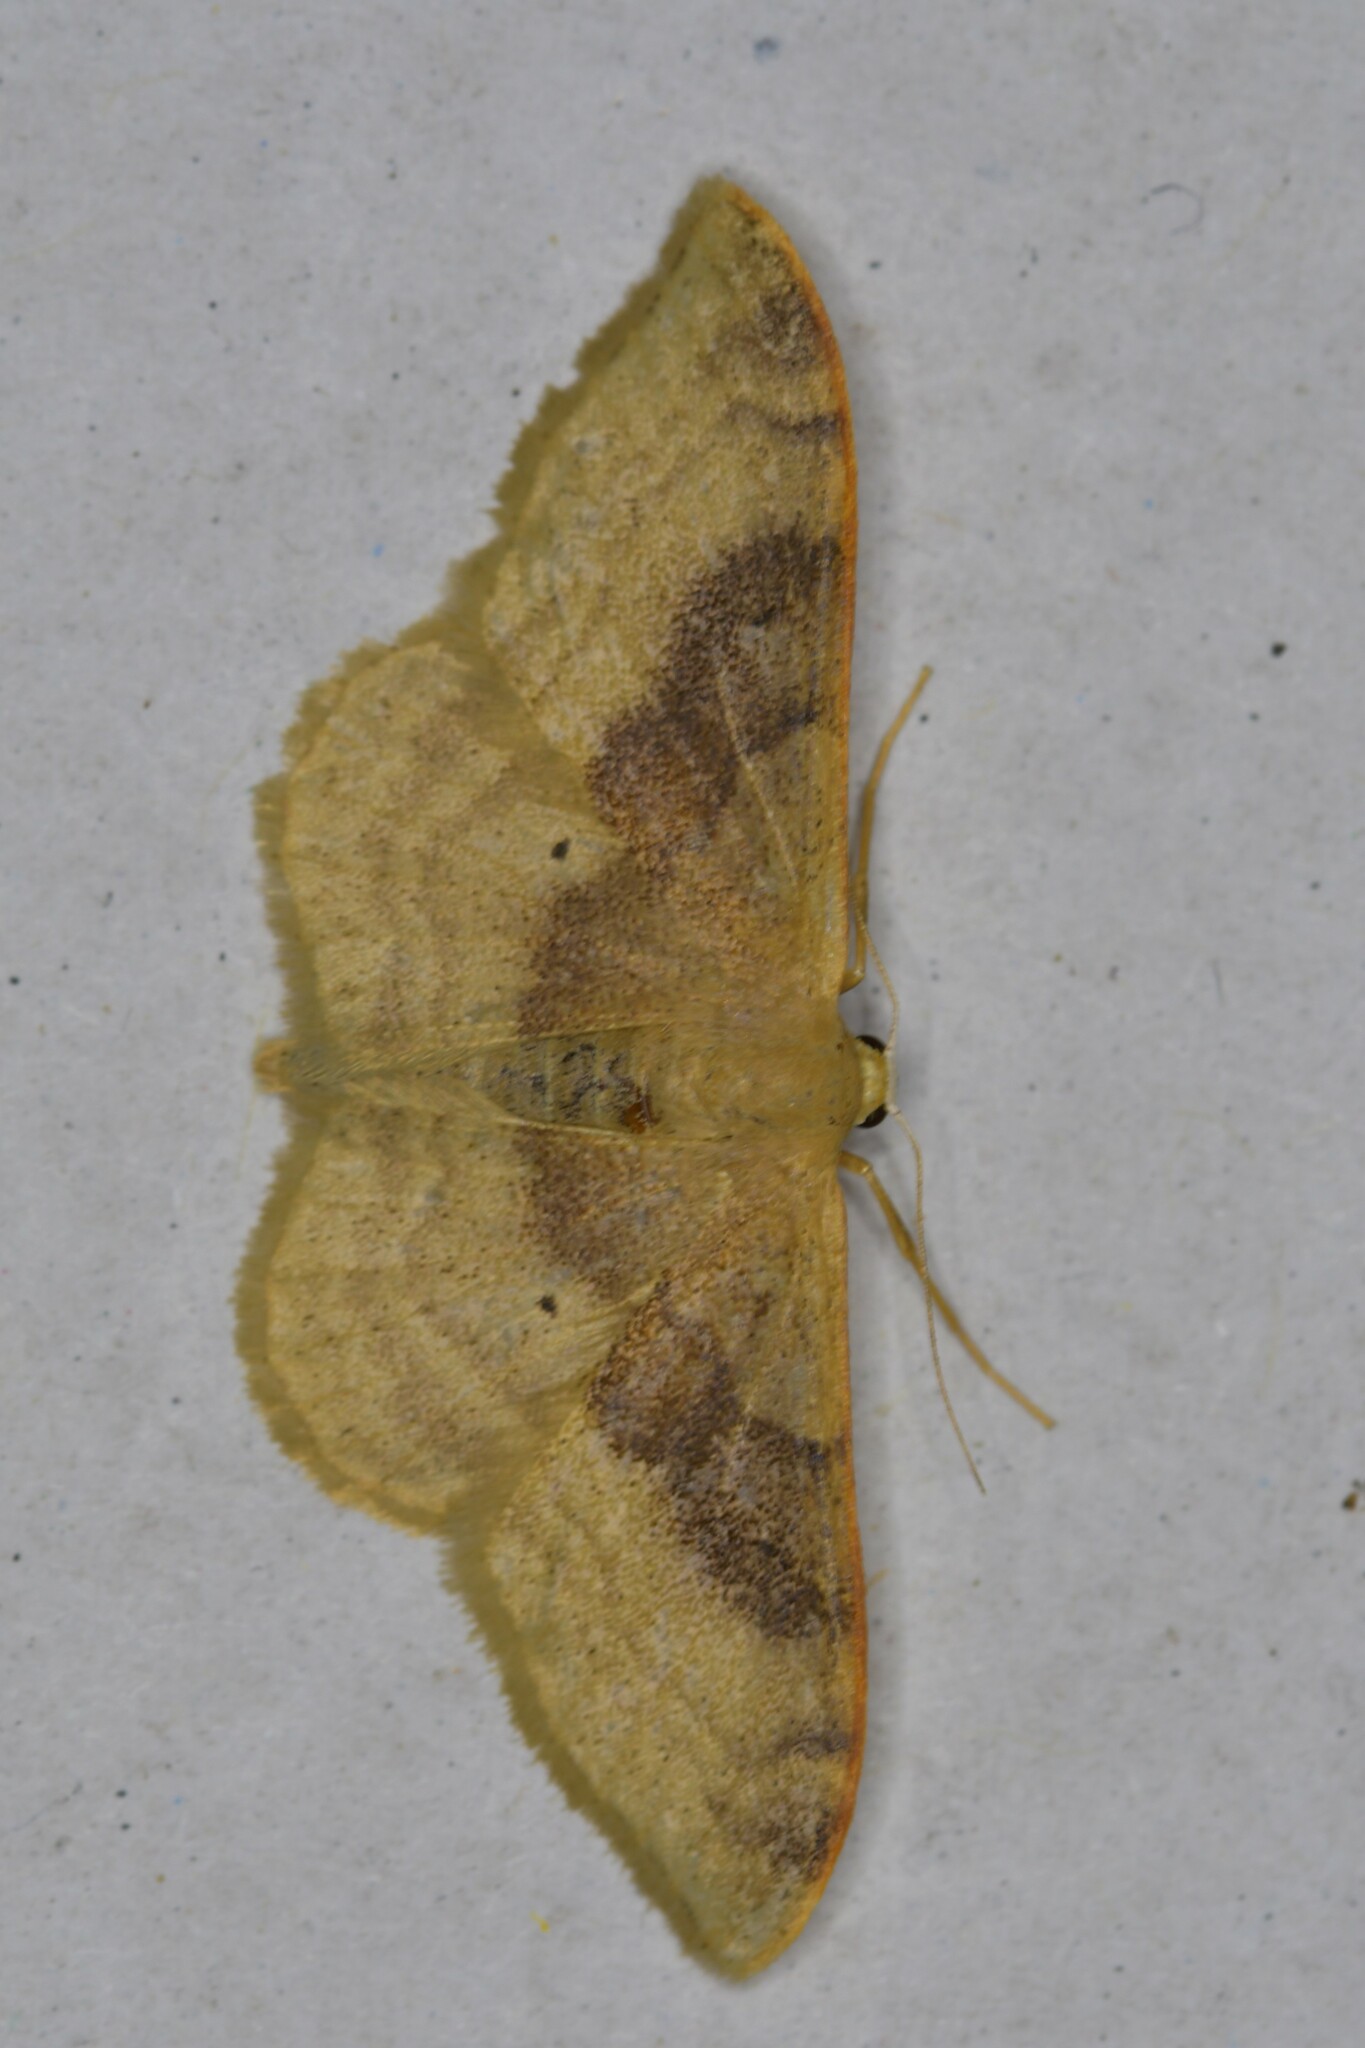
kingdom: Animalia
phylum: Arthropoda
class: Insecta
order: Lepidoptera
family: Geometridae
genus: Idaea
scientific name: Idaea degeneraria
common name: Portland ribbon wave
